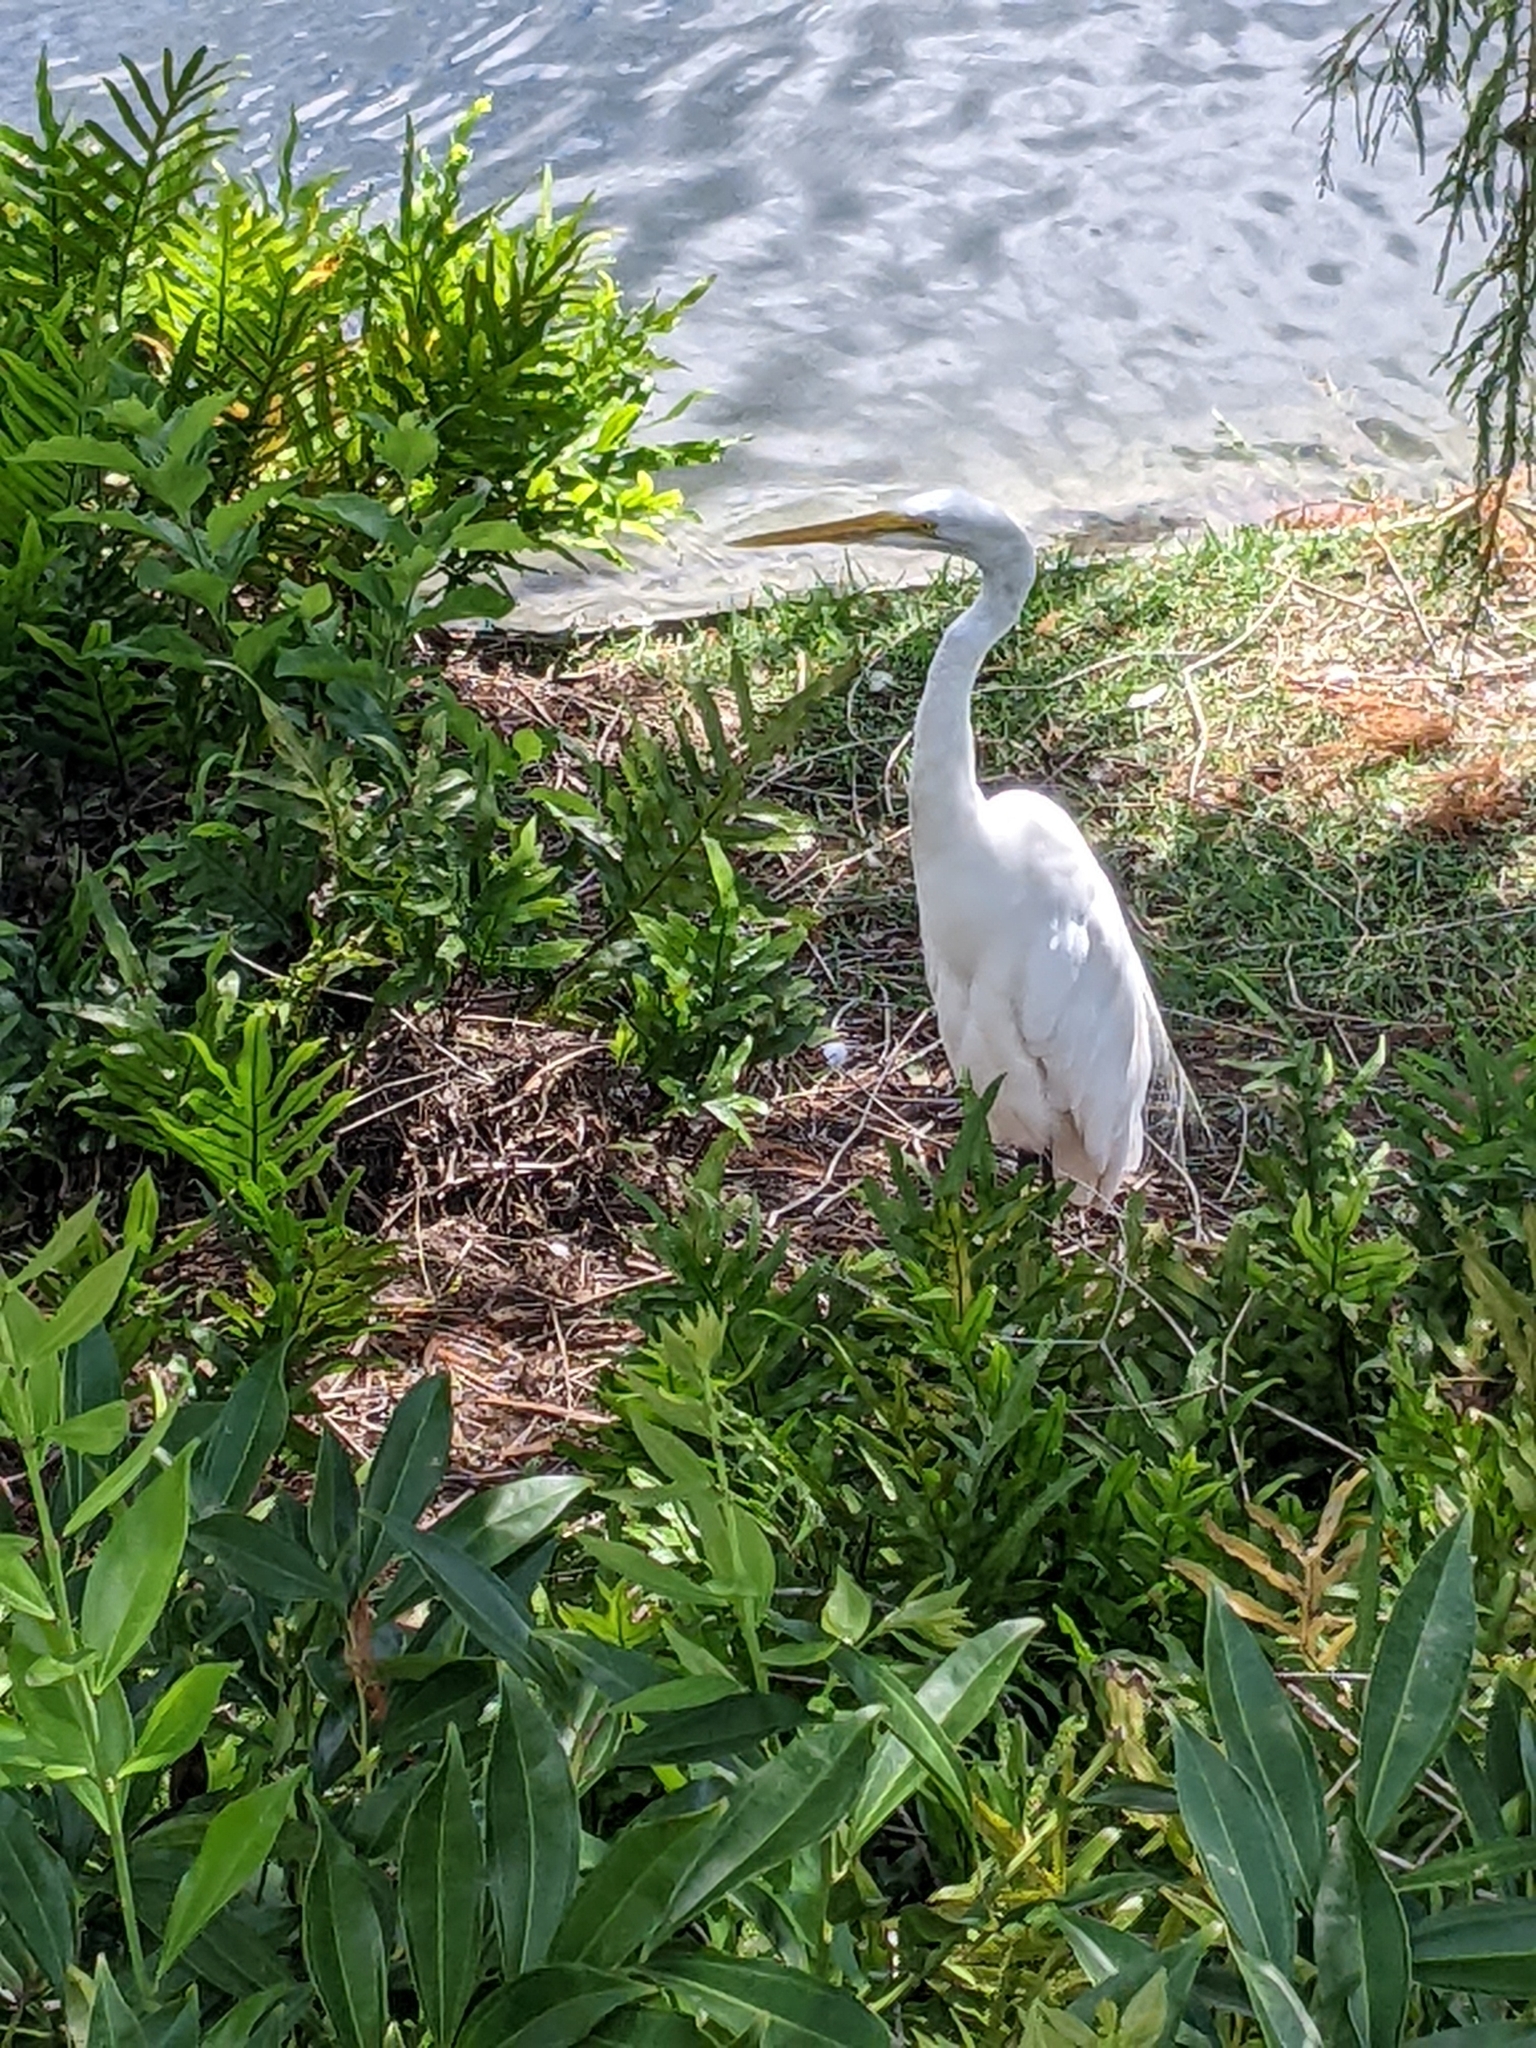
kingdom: Animalia
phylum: Chordata
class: Aves
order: Pelecaniformes
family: Ardeidae
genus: Ardea
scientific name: Ardea alba
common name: Great egret
